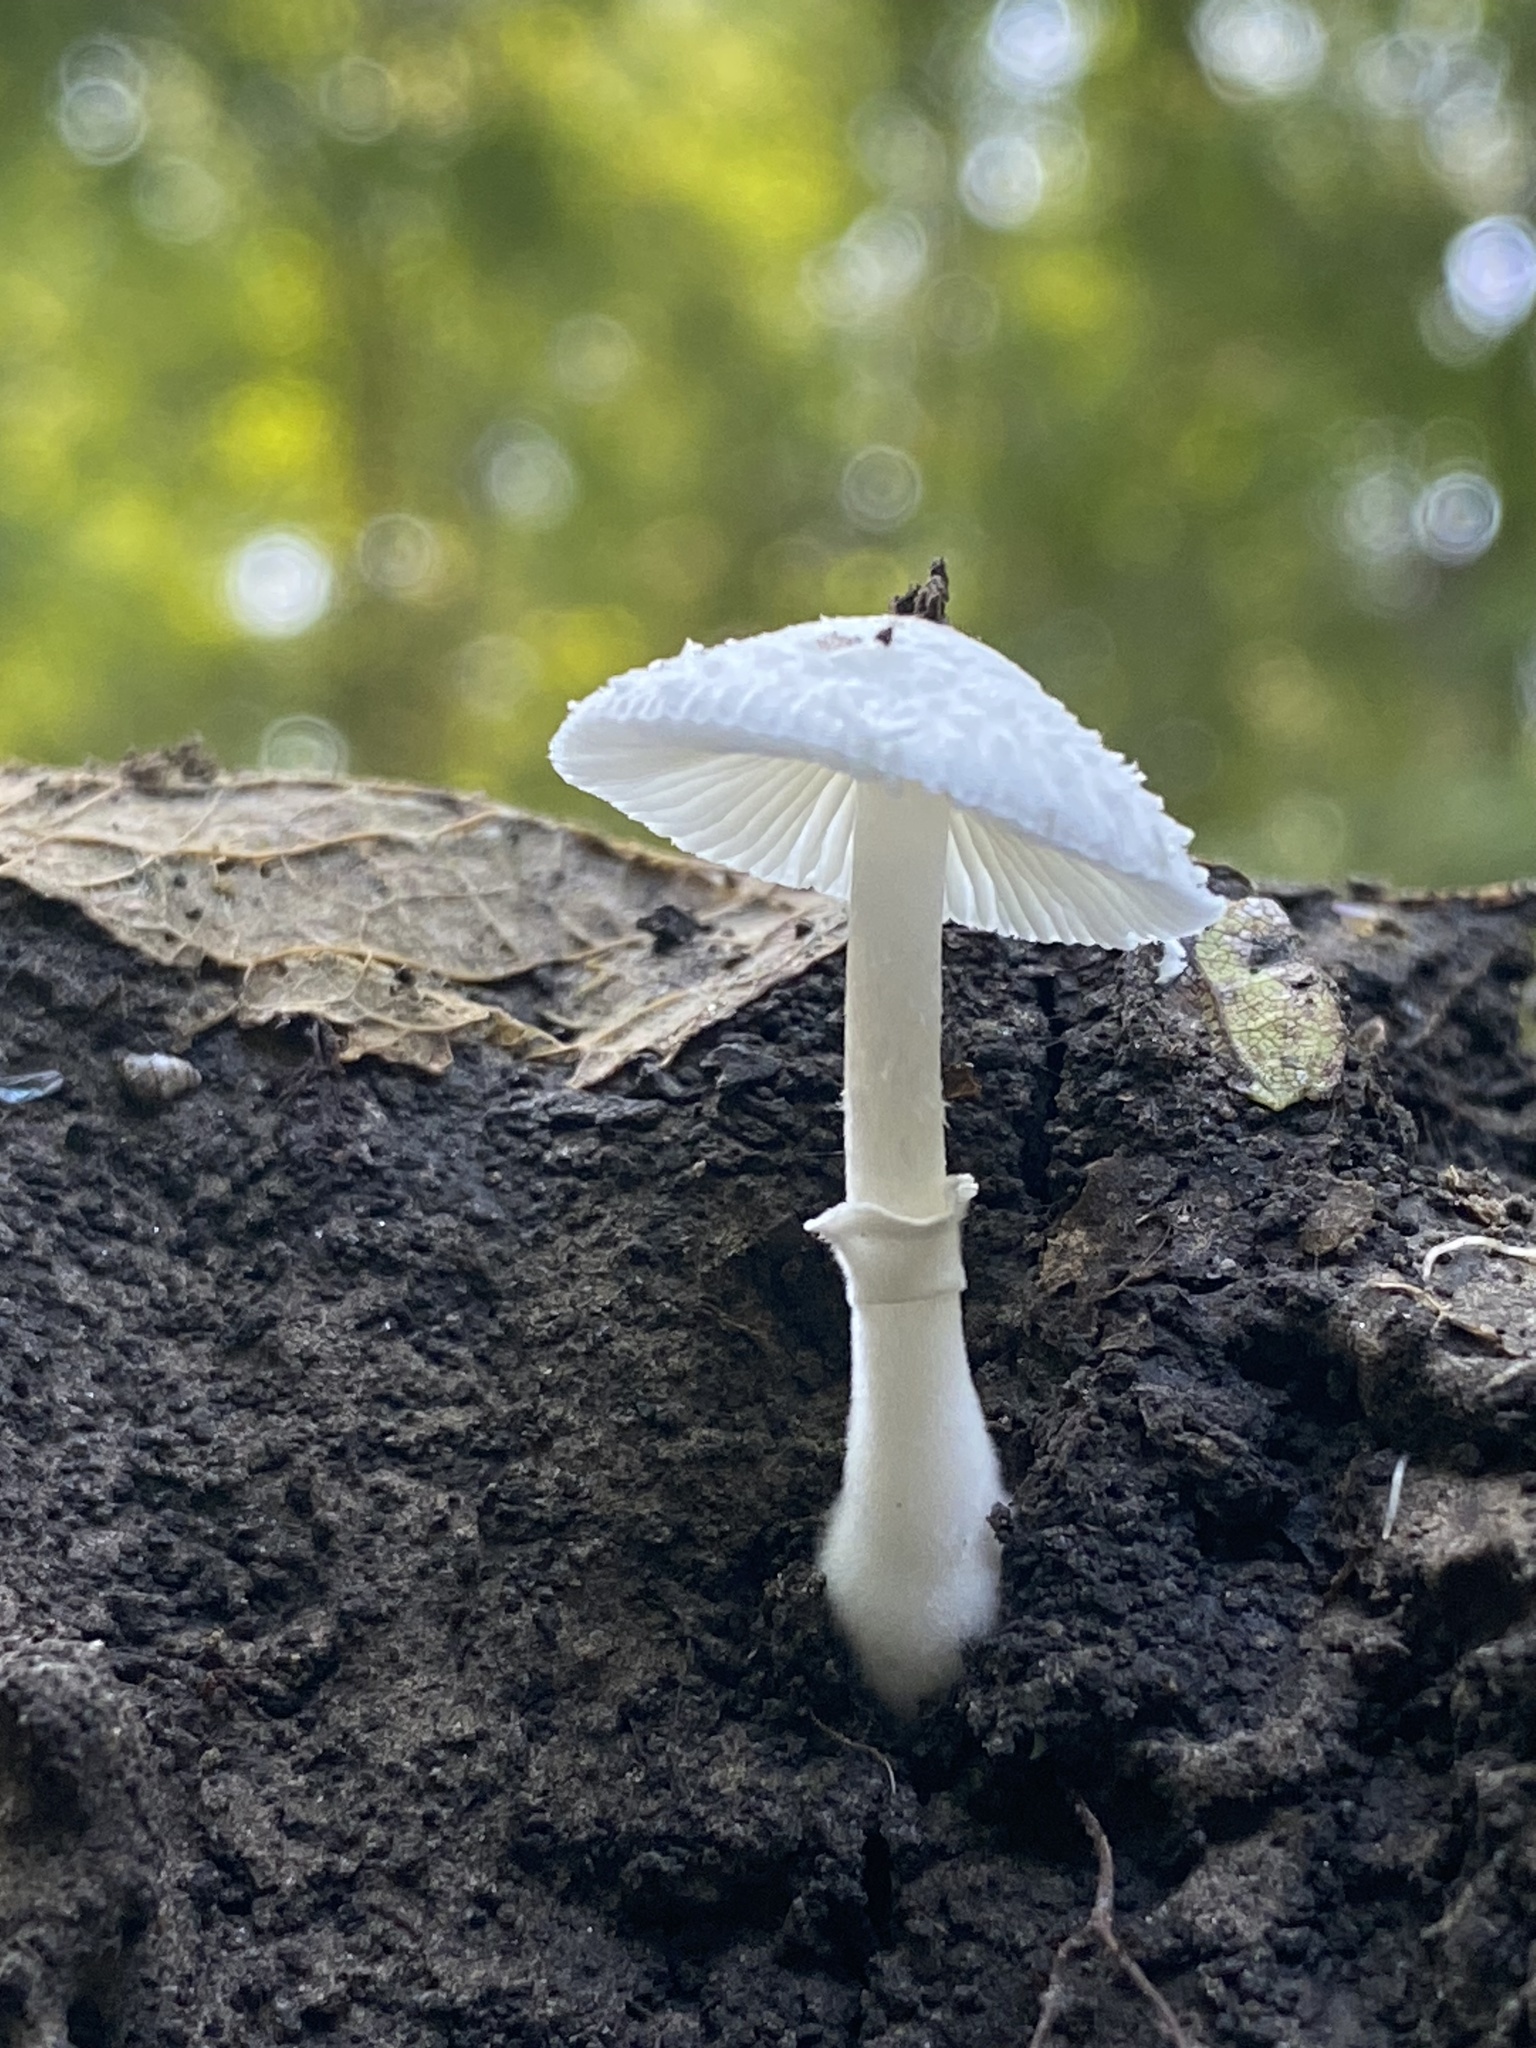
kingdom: Fungi
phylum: Basidiomycota
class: Agaricomycetes
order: Agaricales
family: Agaricaceae
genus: Leucocoprinus
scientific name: Leucocoprinus cepistipes
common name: Onion-stalk parasol
